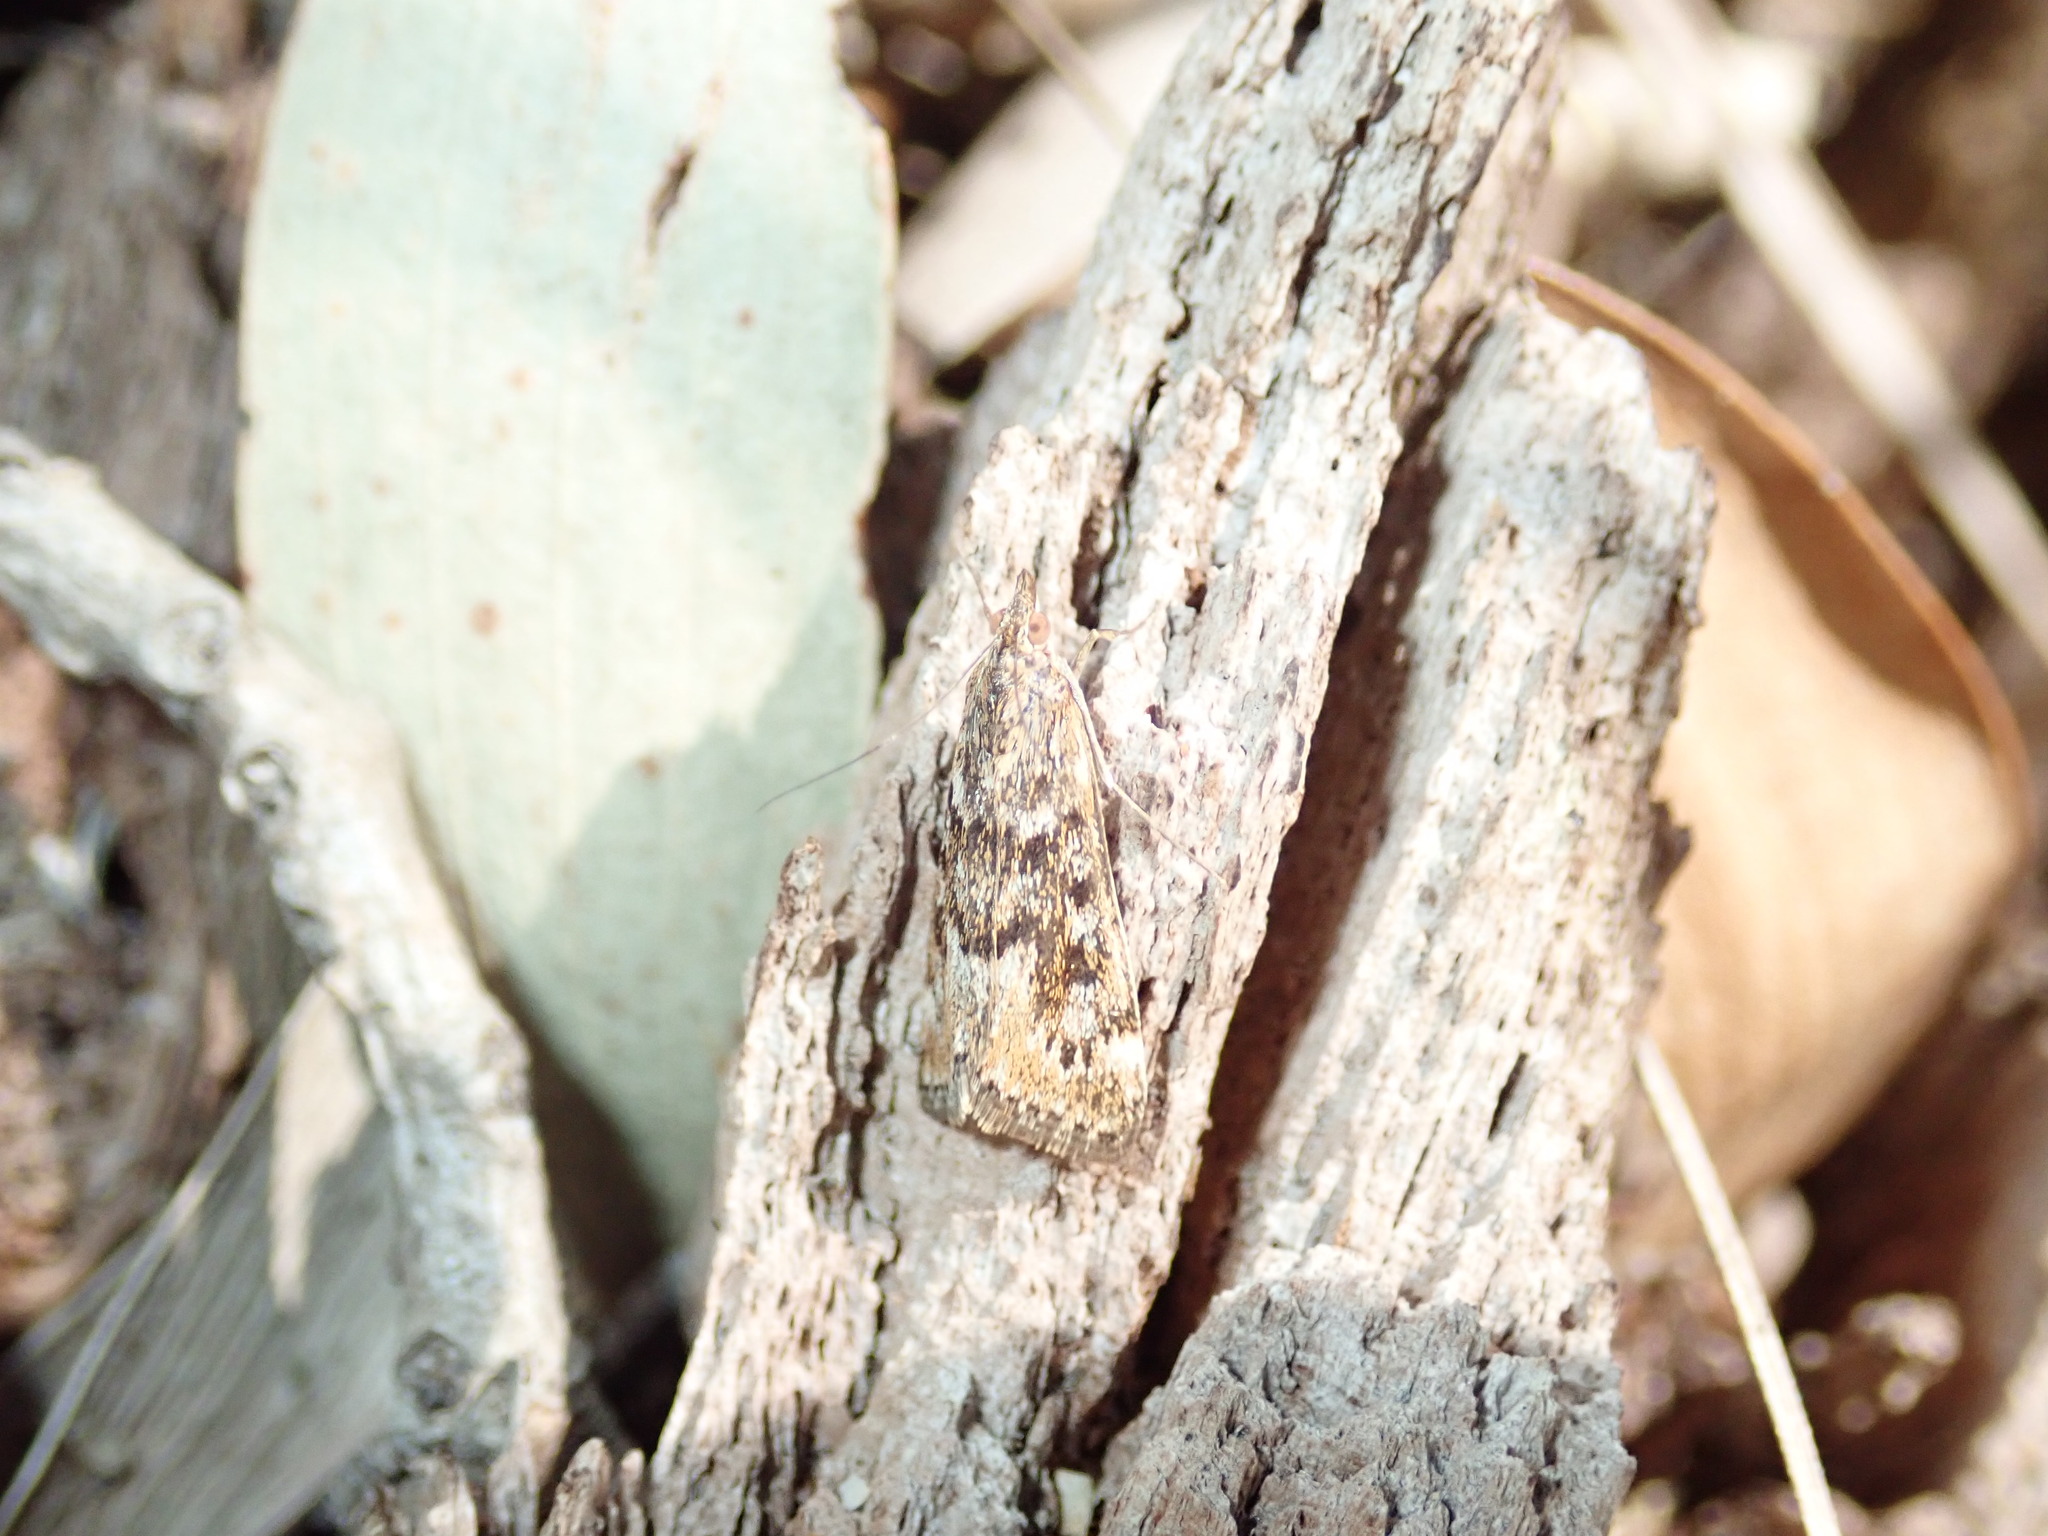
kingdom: Animalia
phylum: Arthropoda
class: Insecta
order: Lepidoptera
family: Crambidae
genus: Achyra
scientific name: Achyra affinitalis
